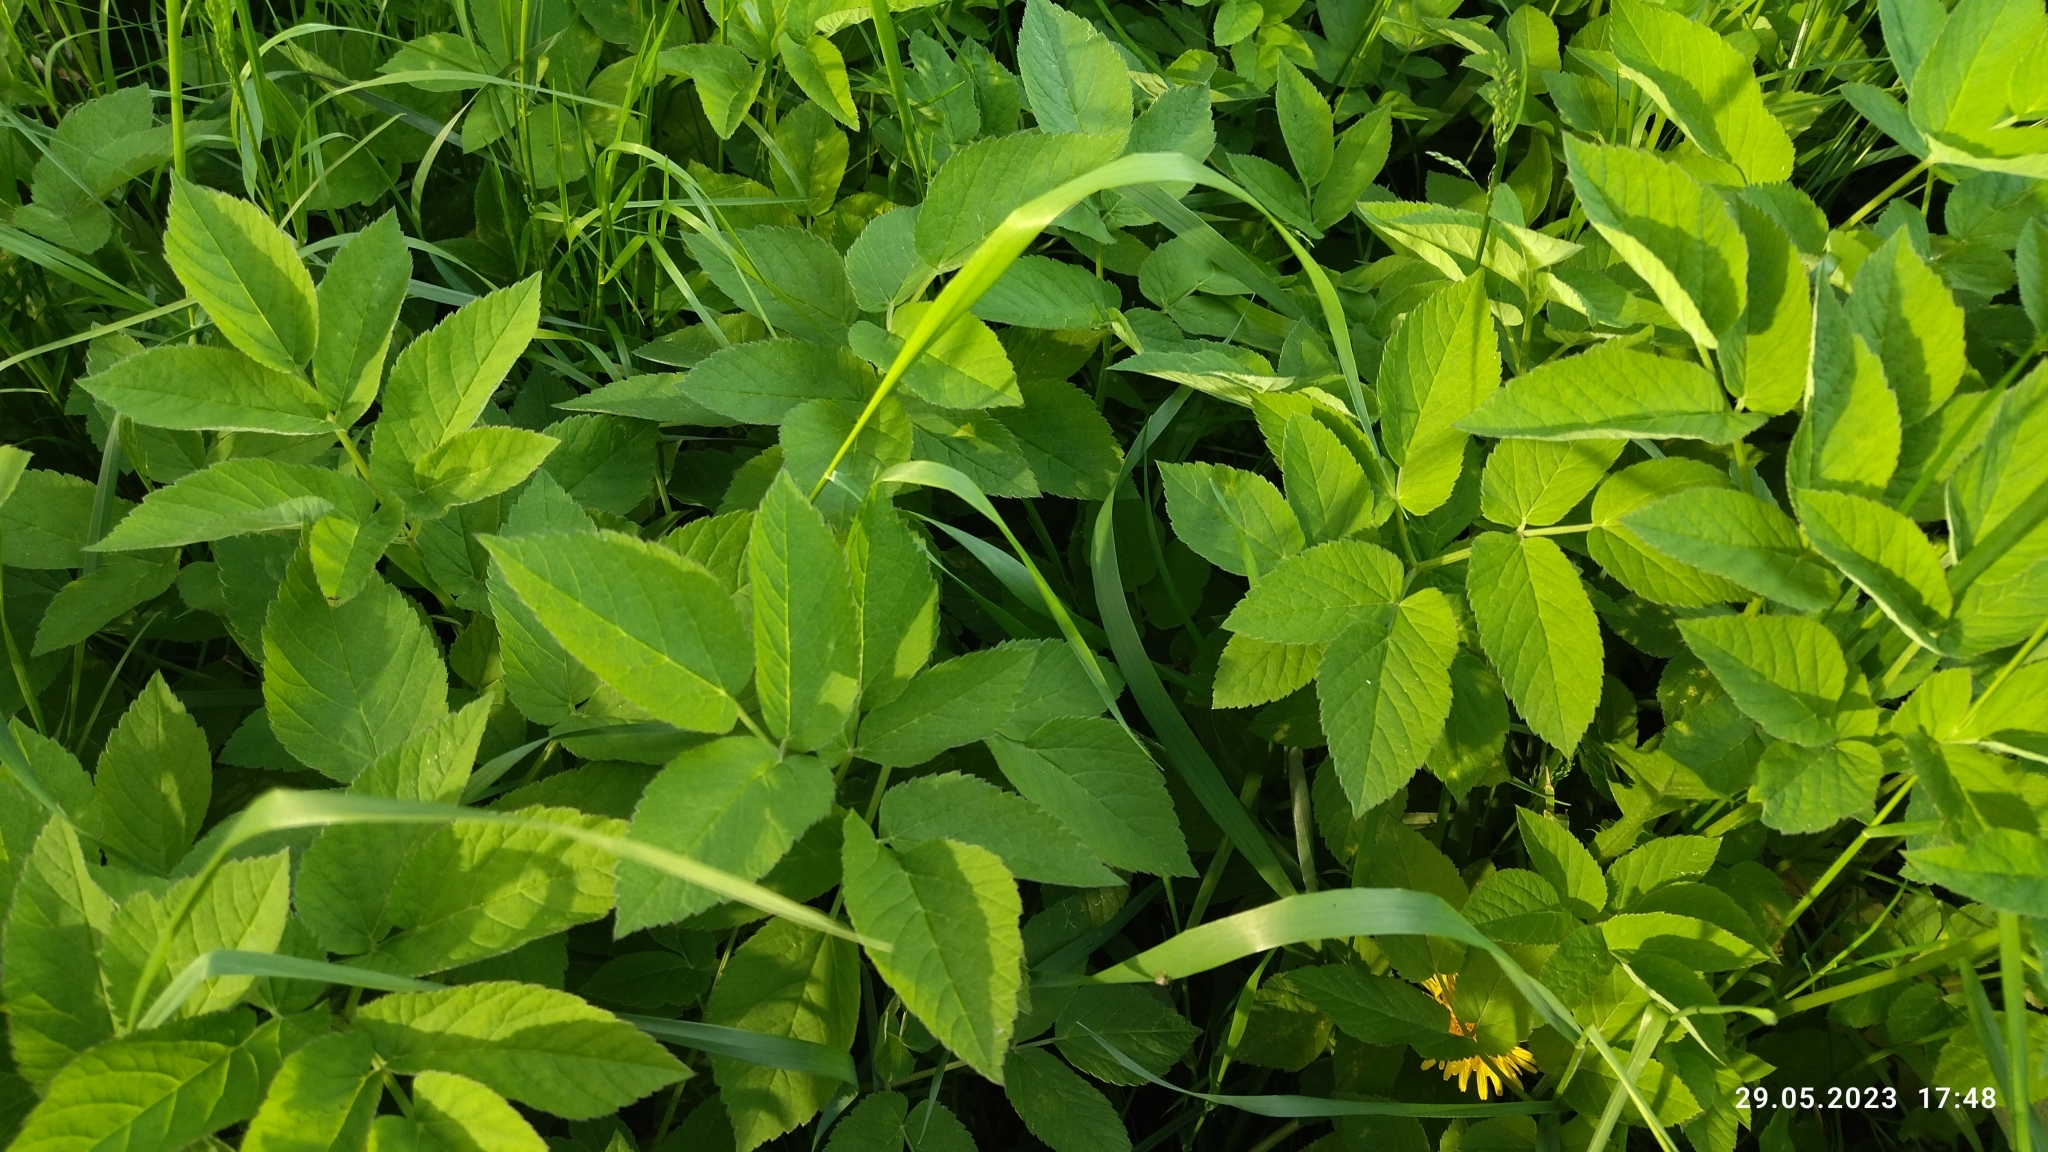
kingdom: Plantae
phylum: Tracheophyta
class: Magnoliopsida
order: Apiales
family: Apiaceae
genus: Aegopodium
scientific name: Aegopodium podagraria
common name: Ground-elder
